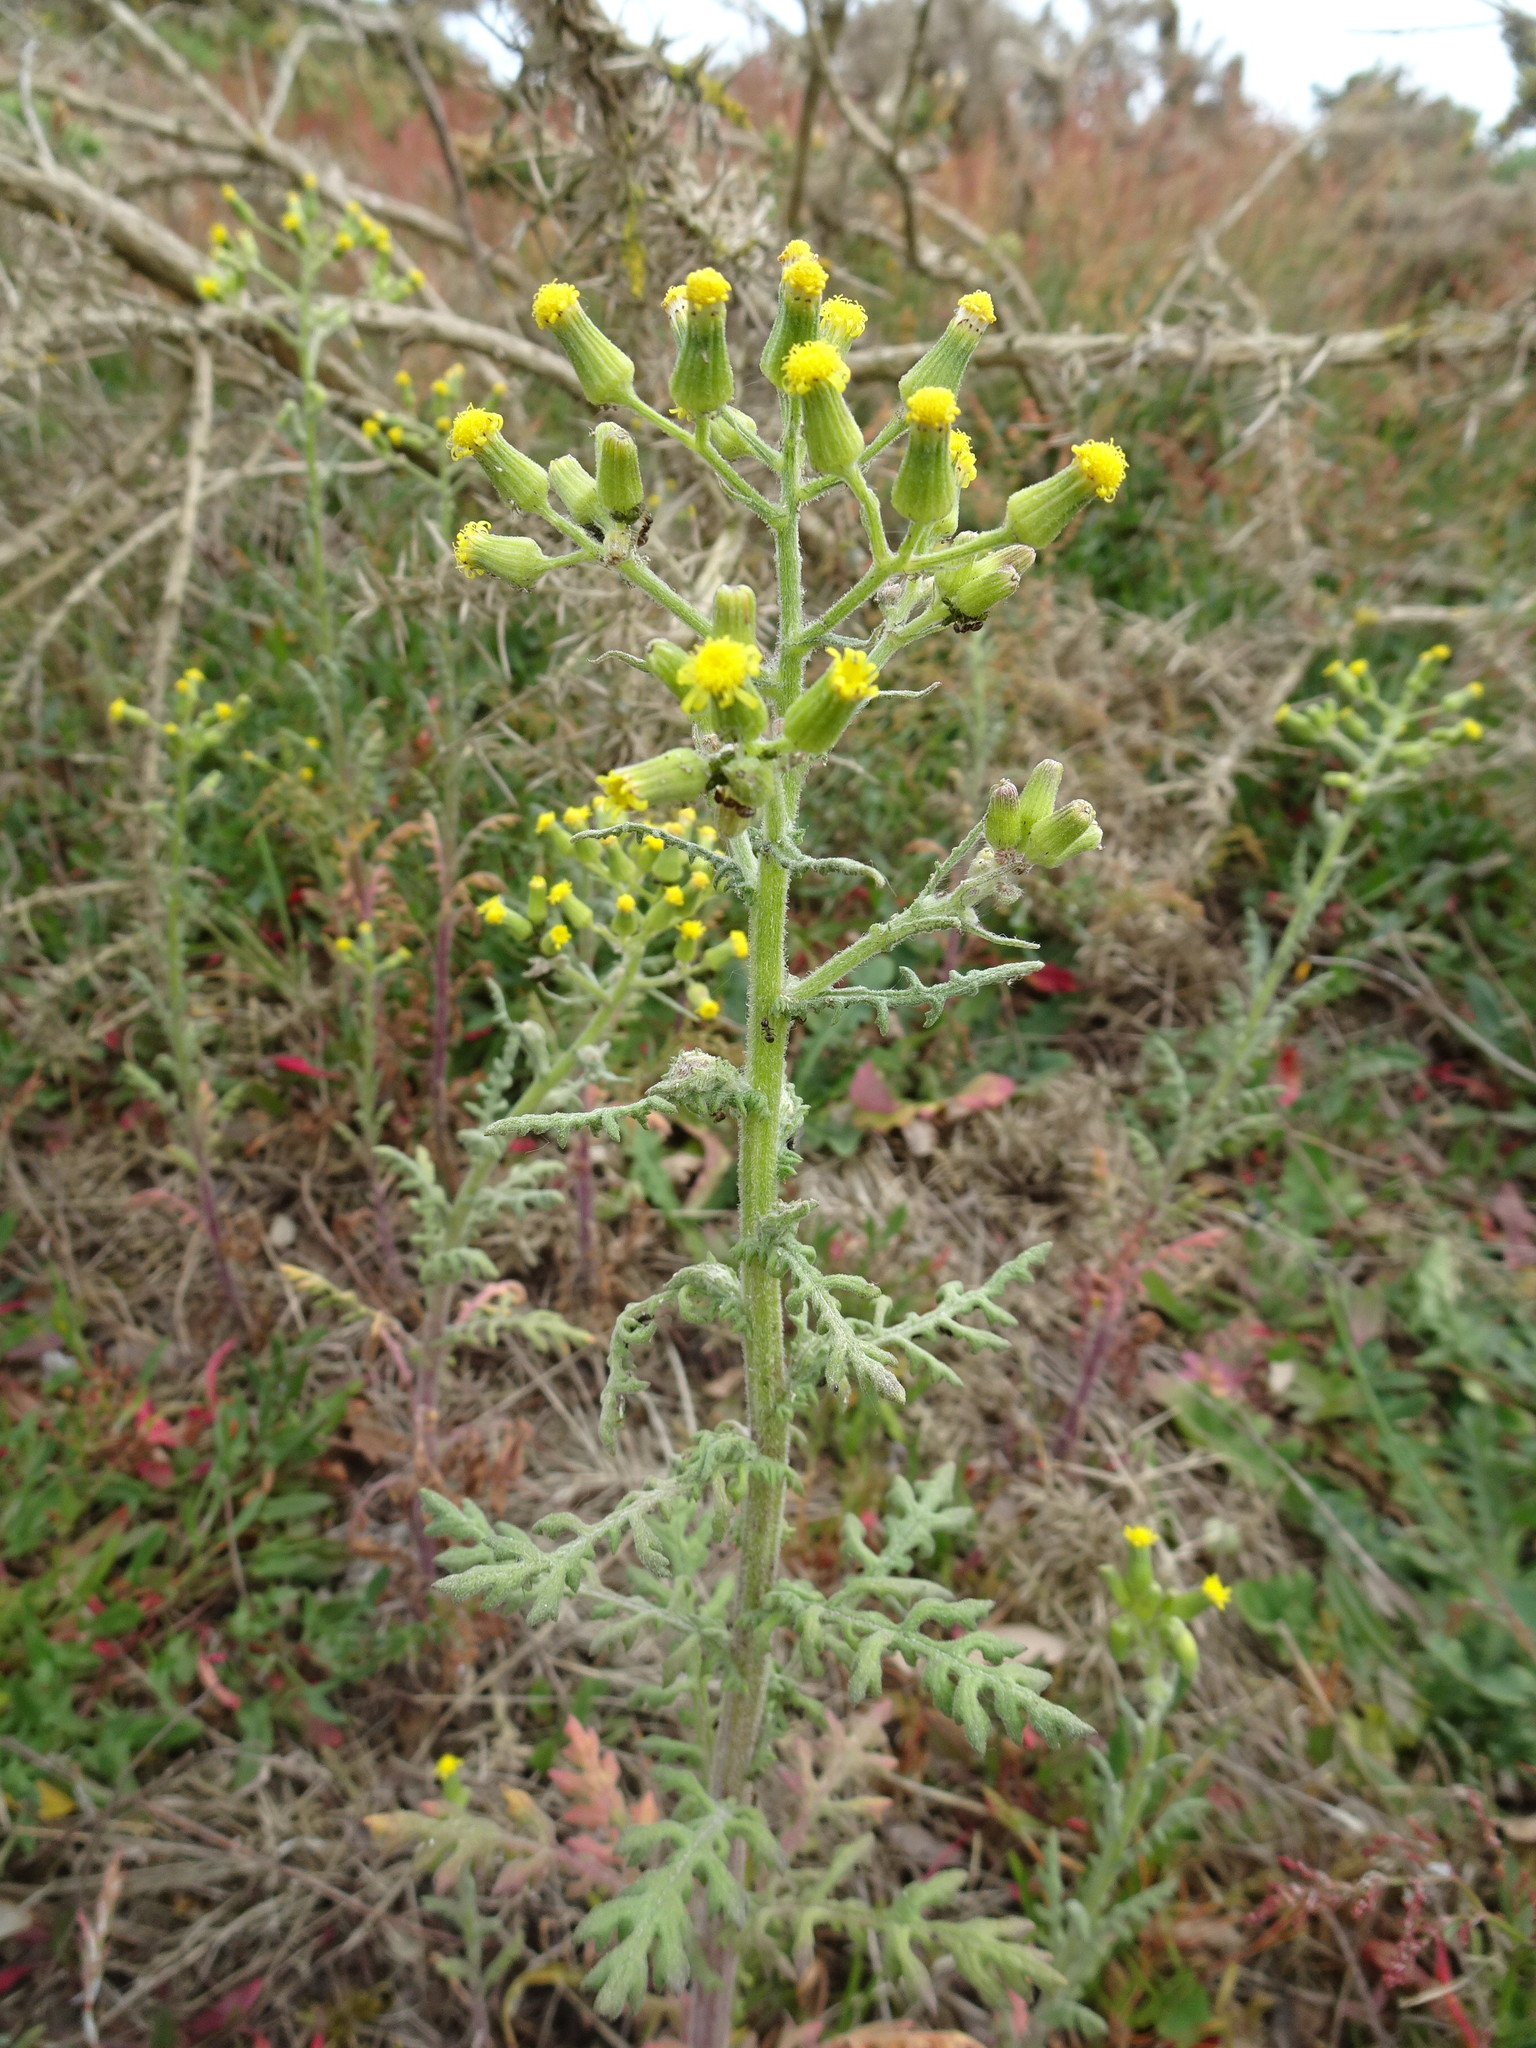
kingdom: Plantae
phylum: Tracheophyta
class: Magnoliopsida
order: Asterales
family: Asteraceae
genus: Senecio
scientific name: Senecio sylvaticus
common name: Woodland ragwort
